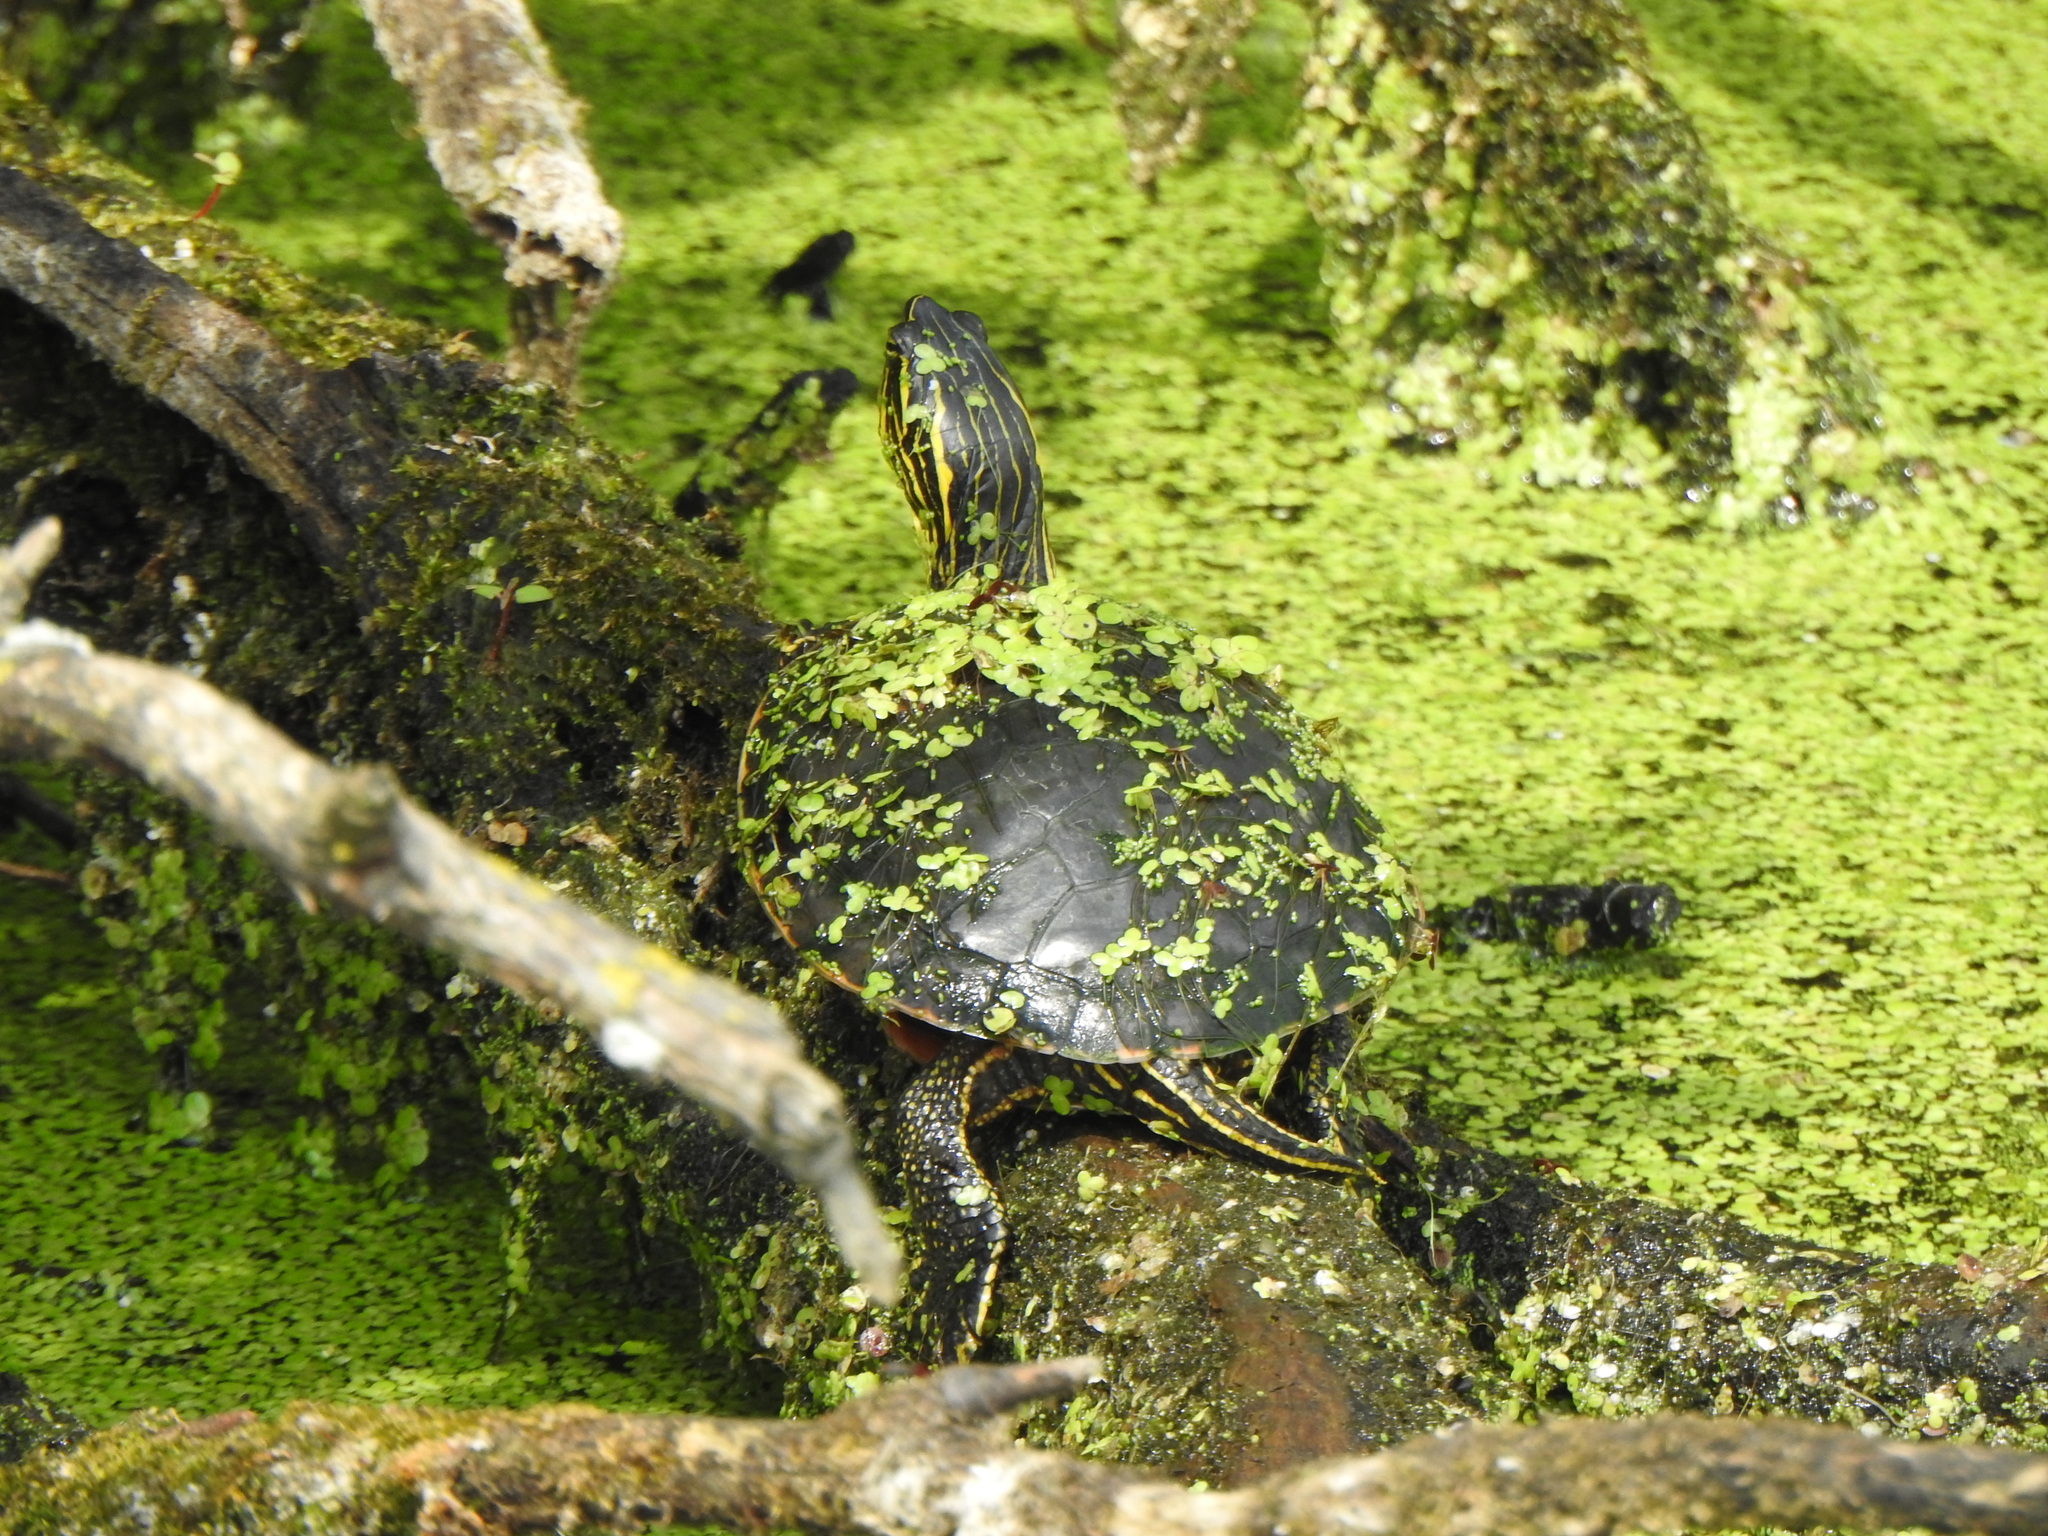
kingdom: Animalia
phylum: Chordata
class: Testudines
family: Emydidae
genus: Chrysemys
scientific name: Chrysemys picta
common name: Painted turtle
